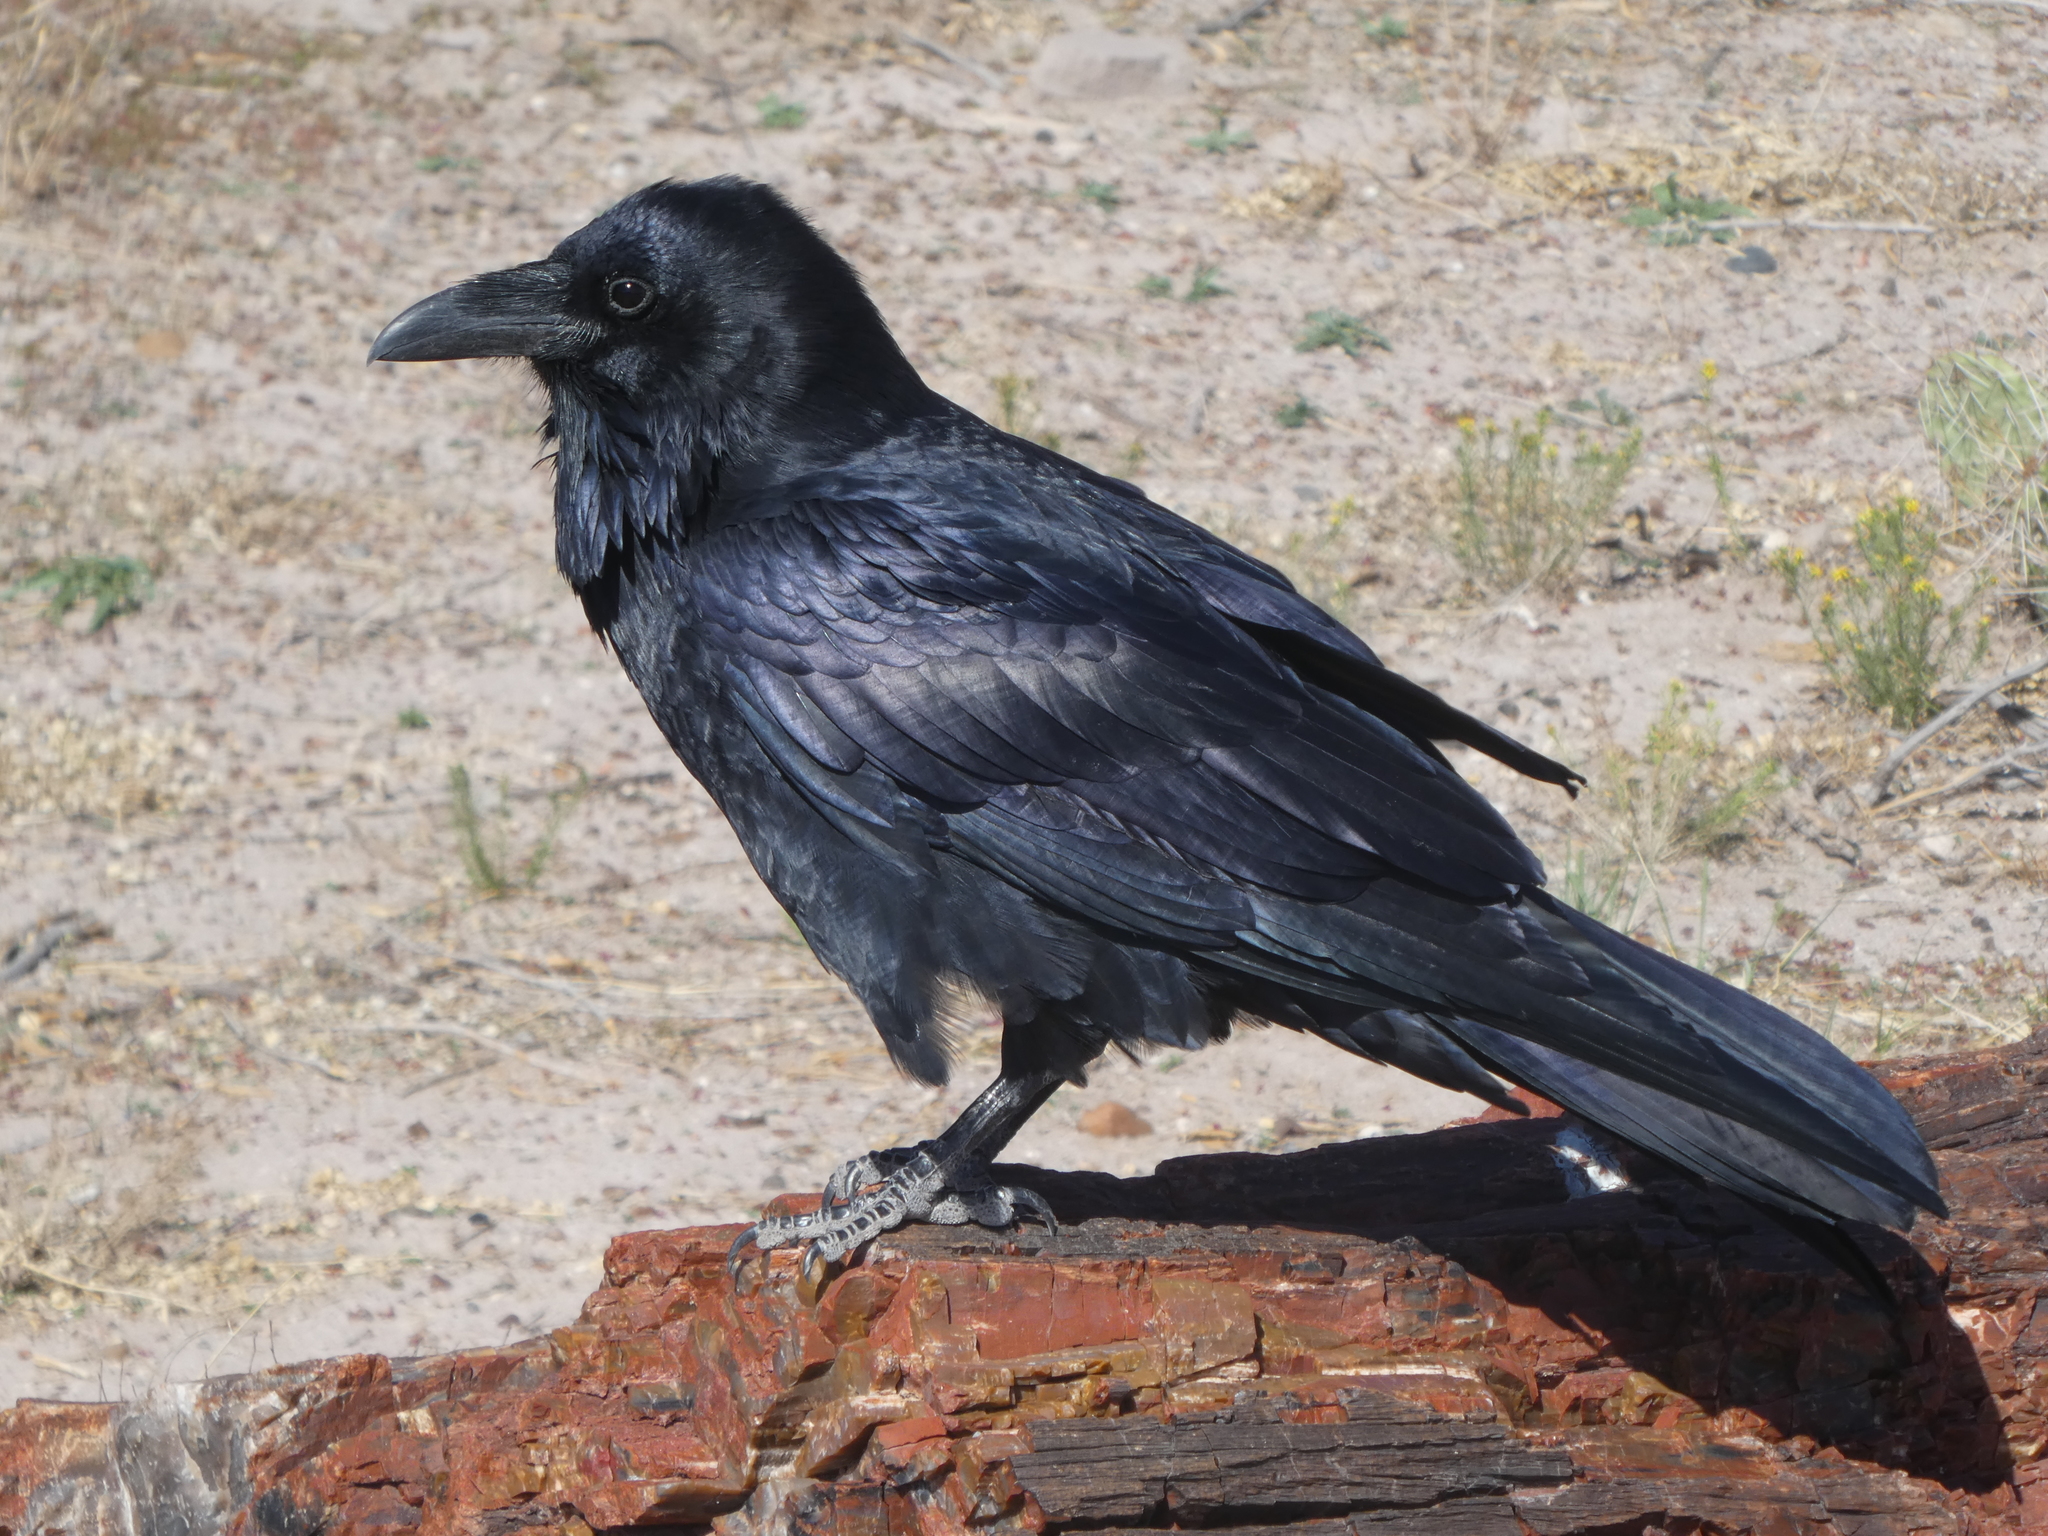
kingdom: Animalia
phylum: Chordata
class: Aves
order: Passeriformes
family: Corvidae
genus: Corvus
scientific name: Corvus corax
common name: Common raven
